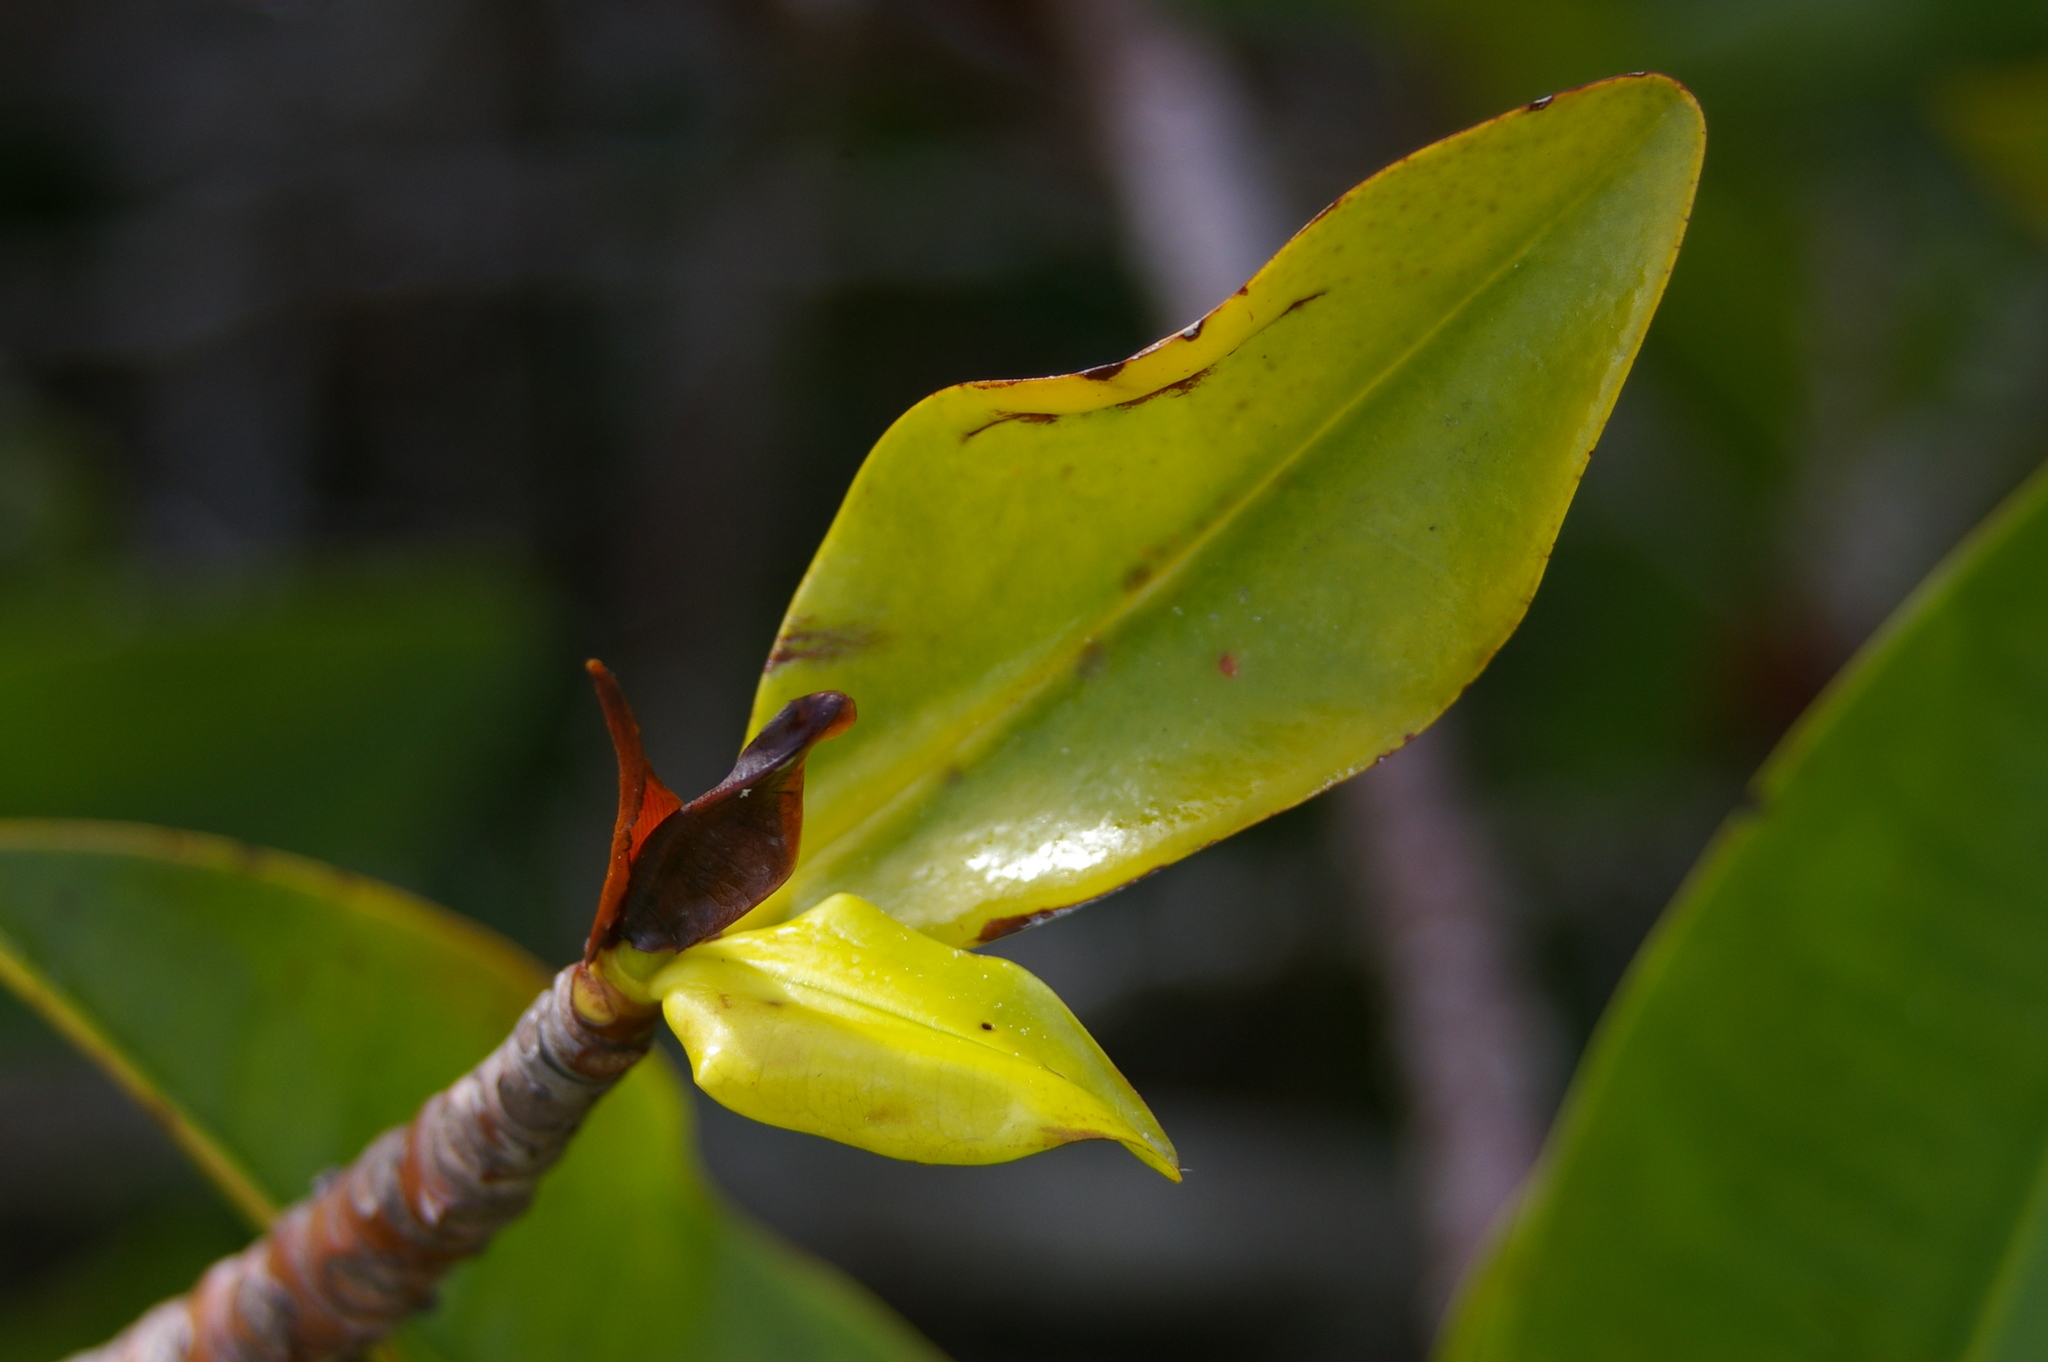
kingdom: Plantae
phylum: Tracheophyta
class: Magnoliopsida
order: Malpighiales
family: Rhizophoraceae
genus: Rhizophora
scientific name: Rhizophora mangle
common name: Red mangrove
